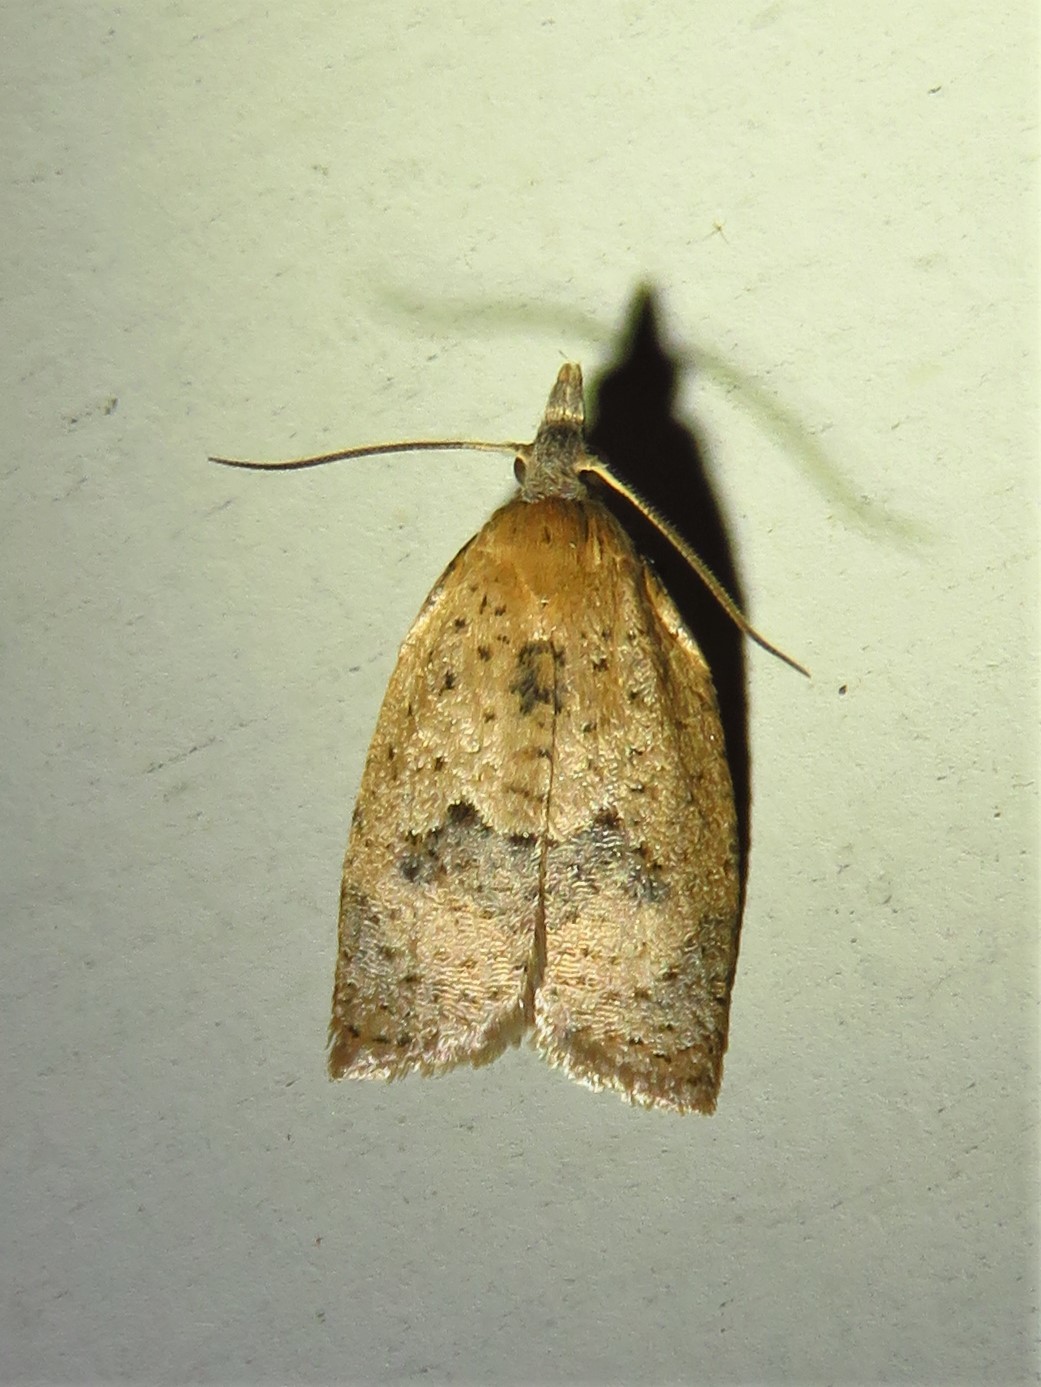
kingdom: Animalia
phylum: Arthropoda
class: Insecta
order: Lepidoptera
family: Tortricidae
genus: Sparganothoides
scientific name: Sparganothoides lentiginosana
